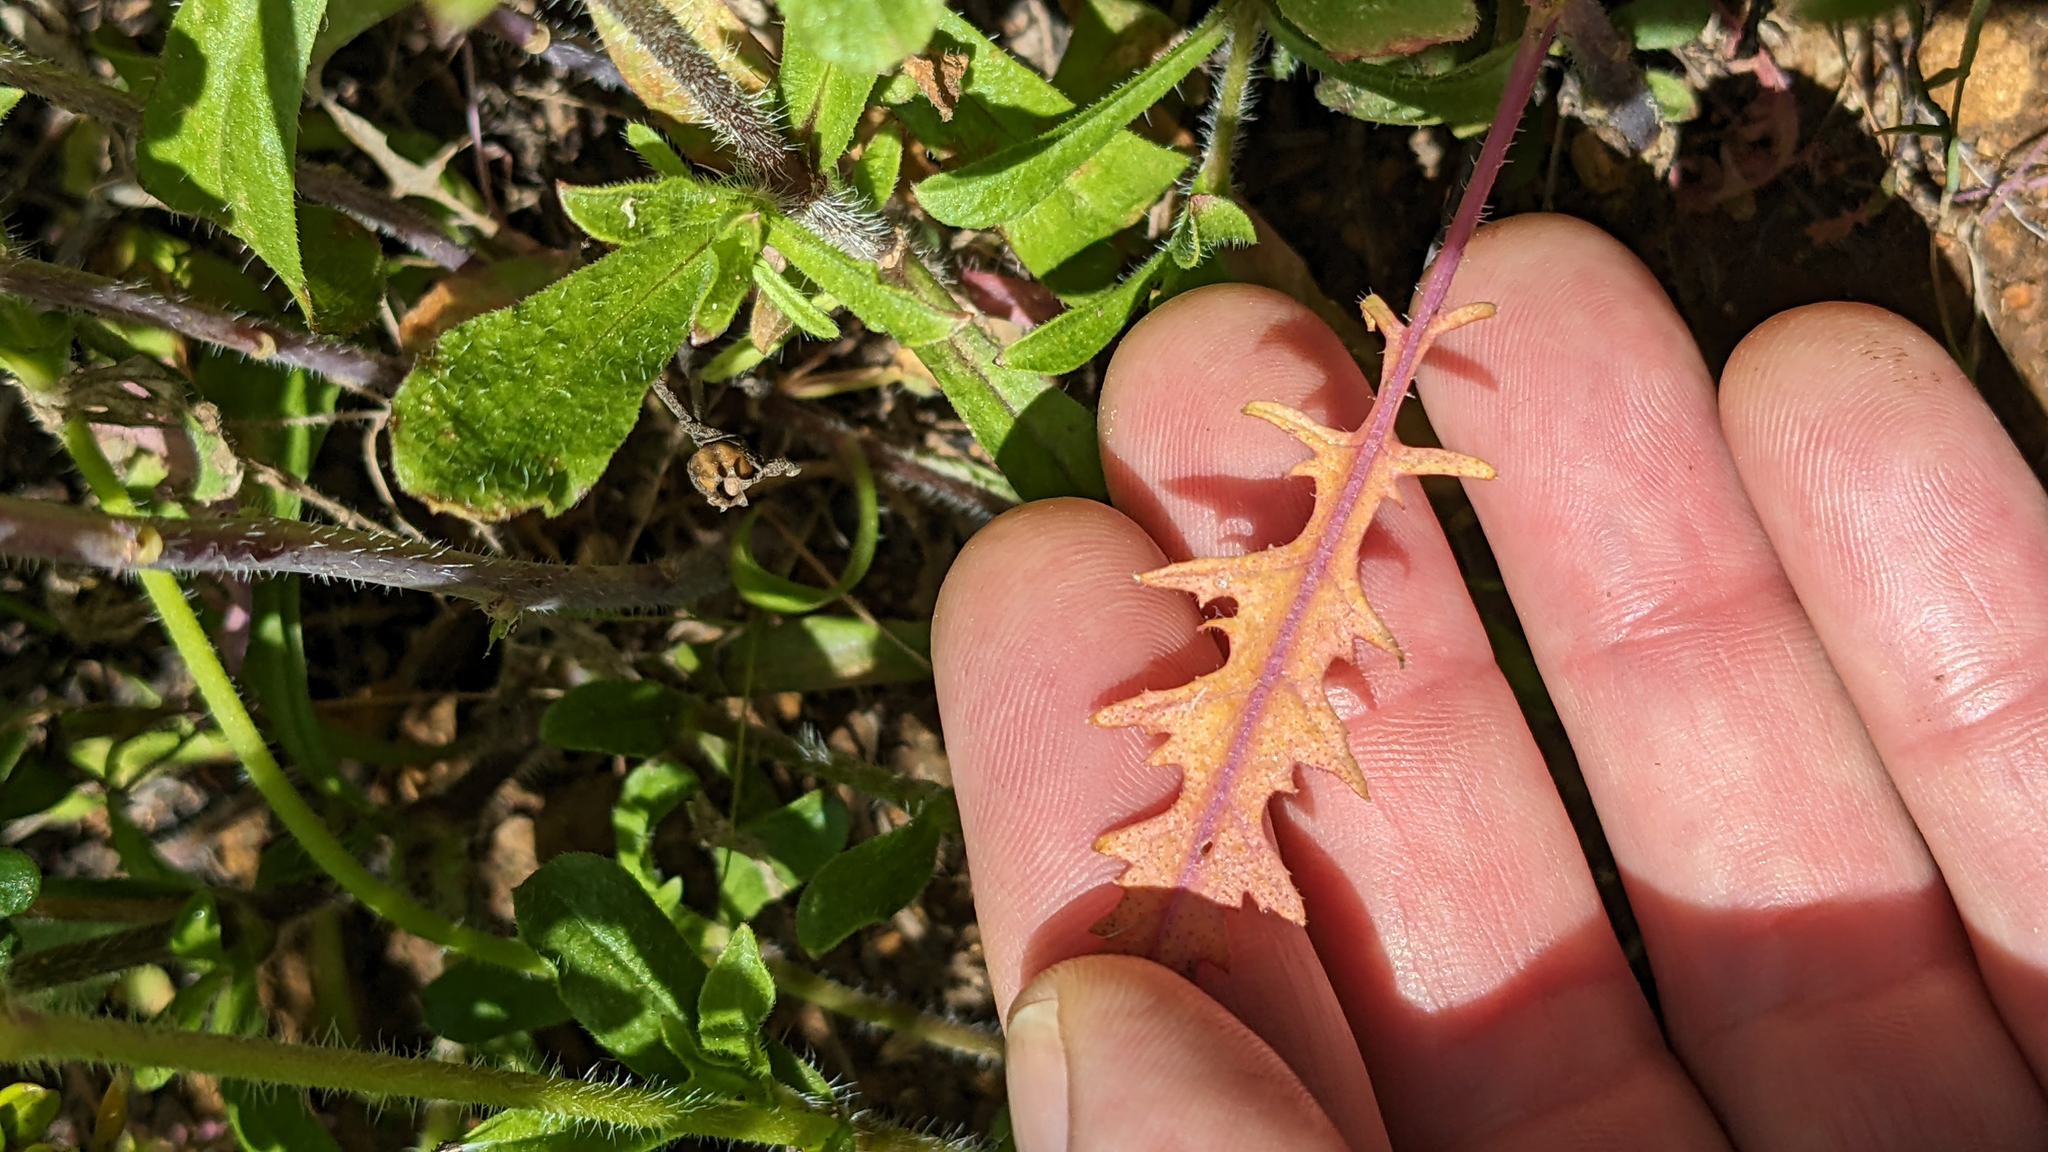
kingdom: Plantae
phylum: Tracheophyta
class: Magnoliopsida
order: Brassicales
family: Brassicaceae
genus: Streptanthus
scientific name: Streptanthus lasiophyllus
